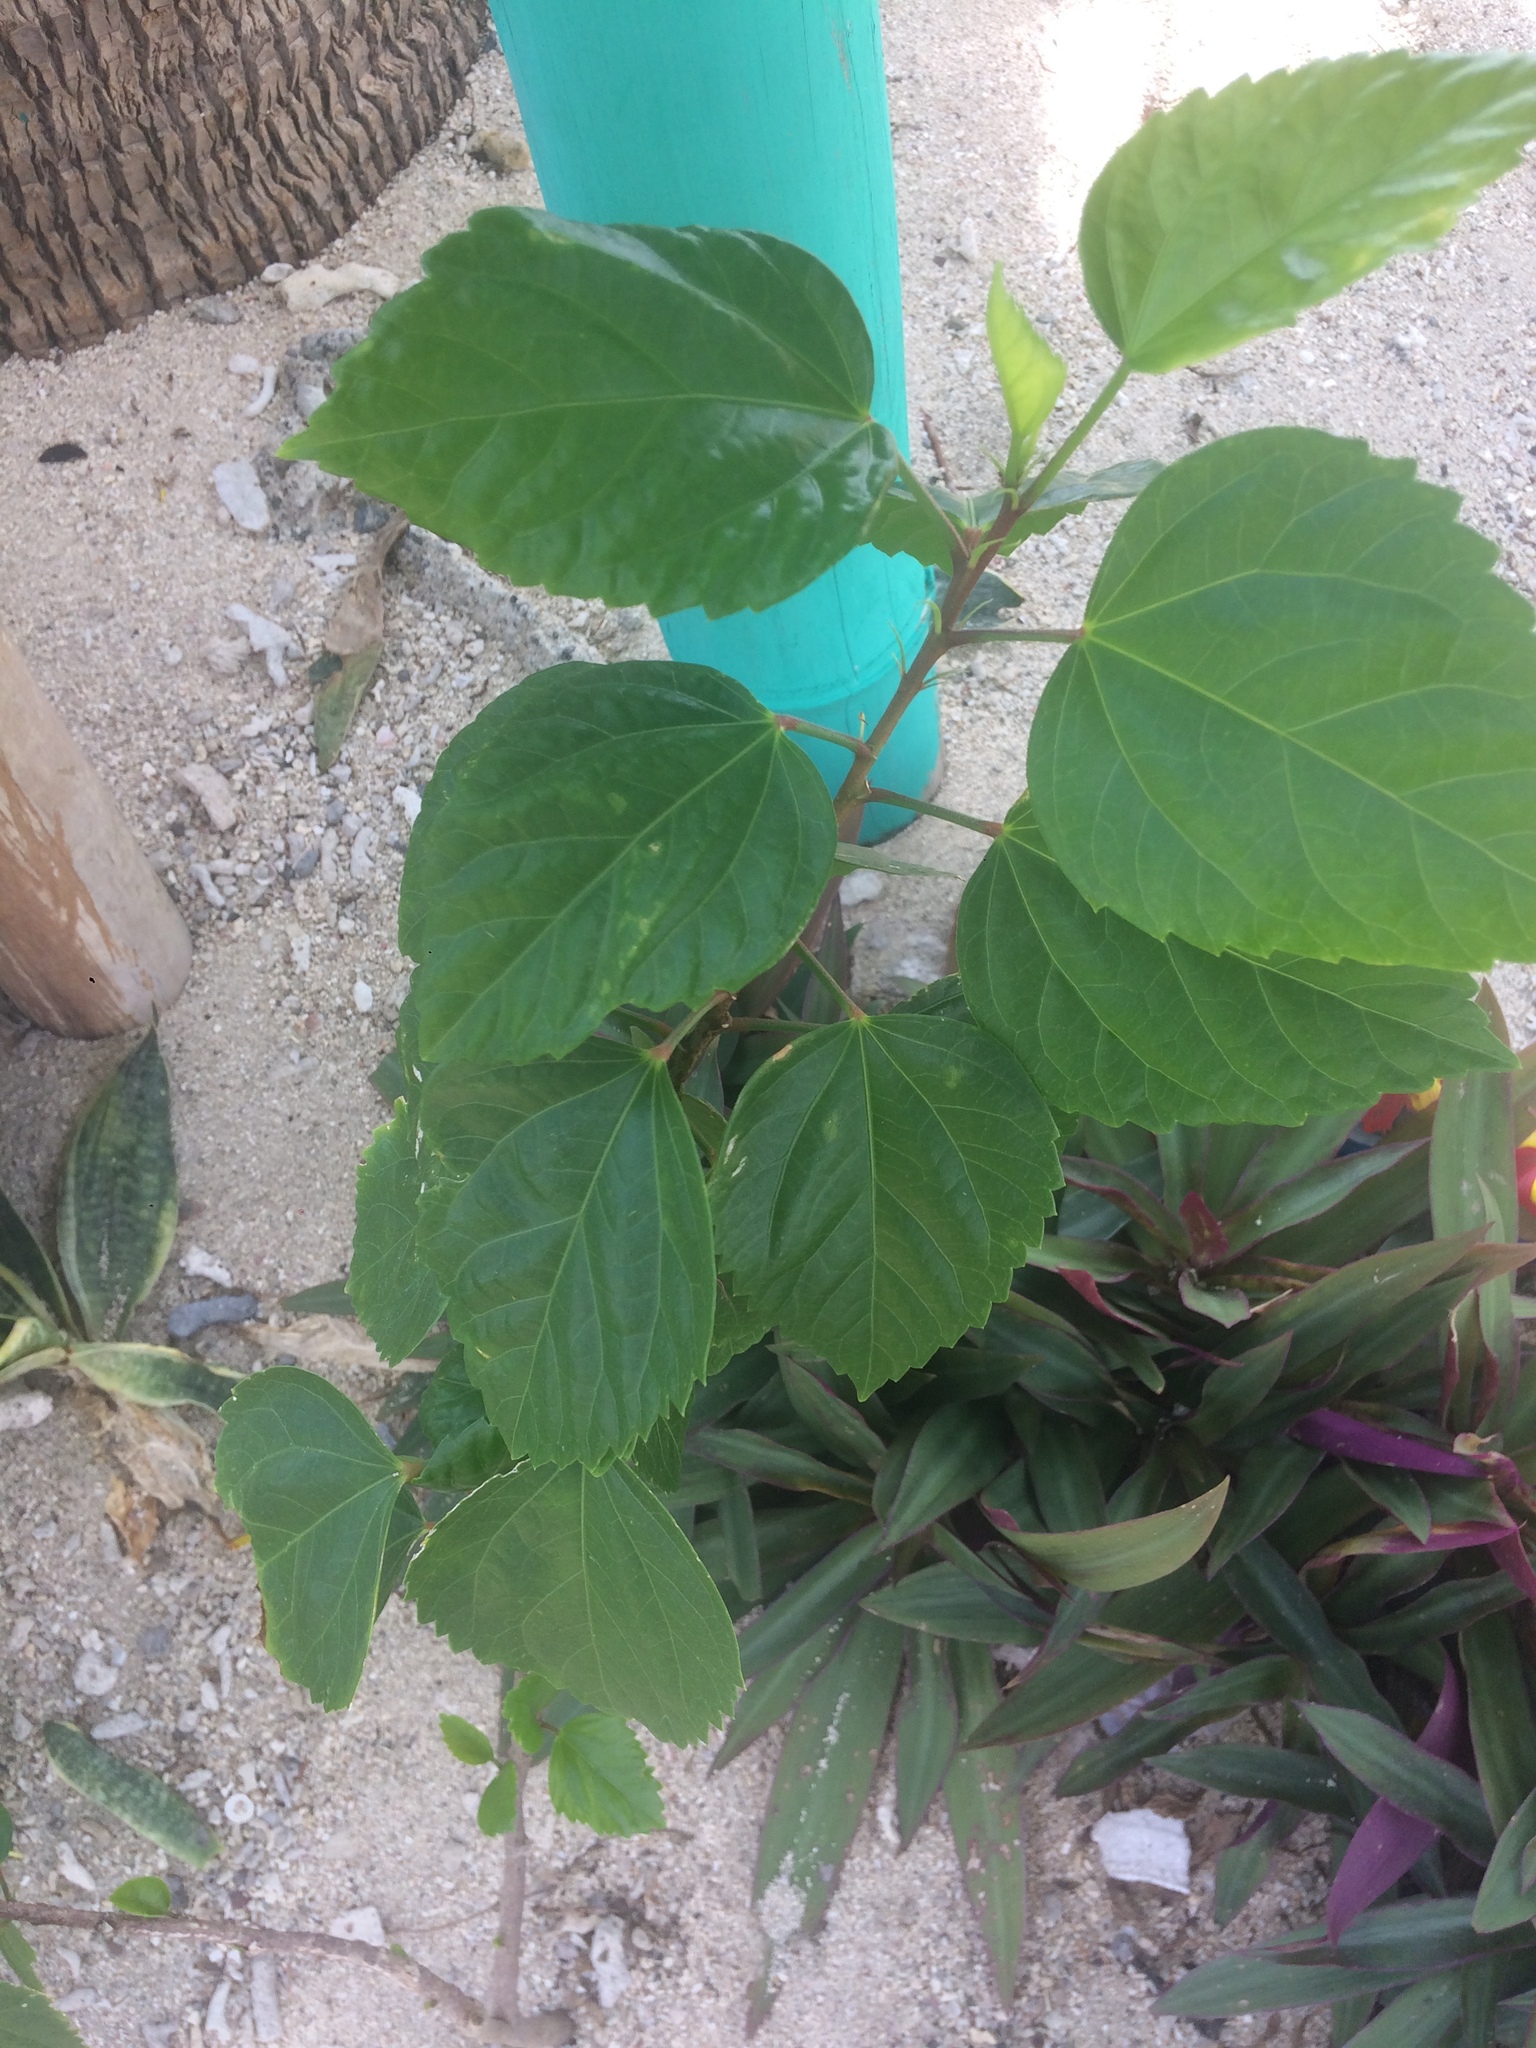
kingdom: Plantae
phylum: Tracheophyta
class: Magnoliopsida
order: Malvales
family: Malvaceae
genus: Hibiscus
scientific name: Hibiscus rosa-sinensis
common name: Hibiscus
